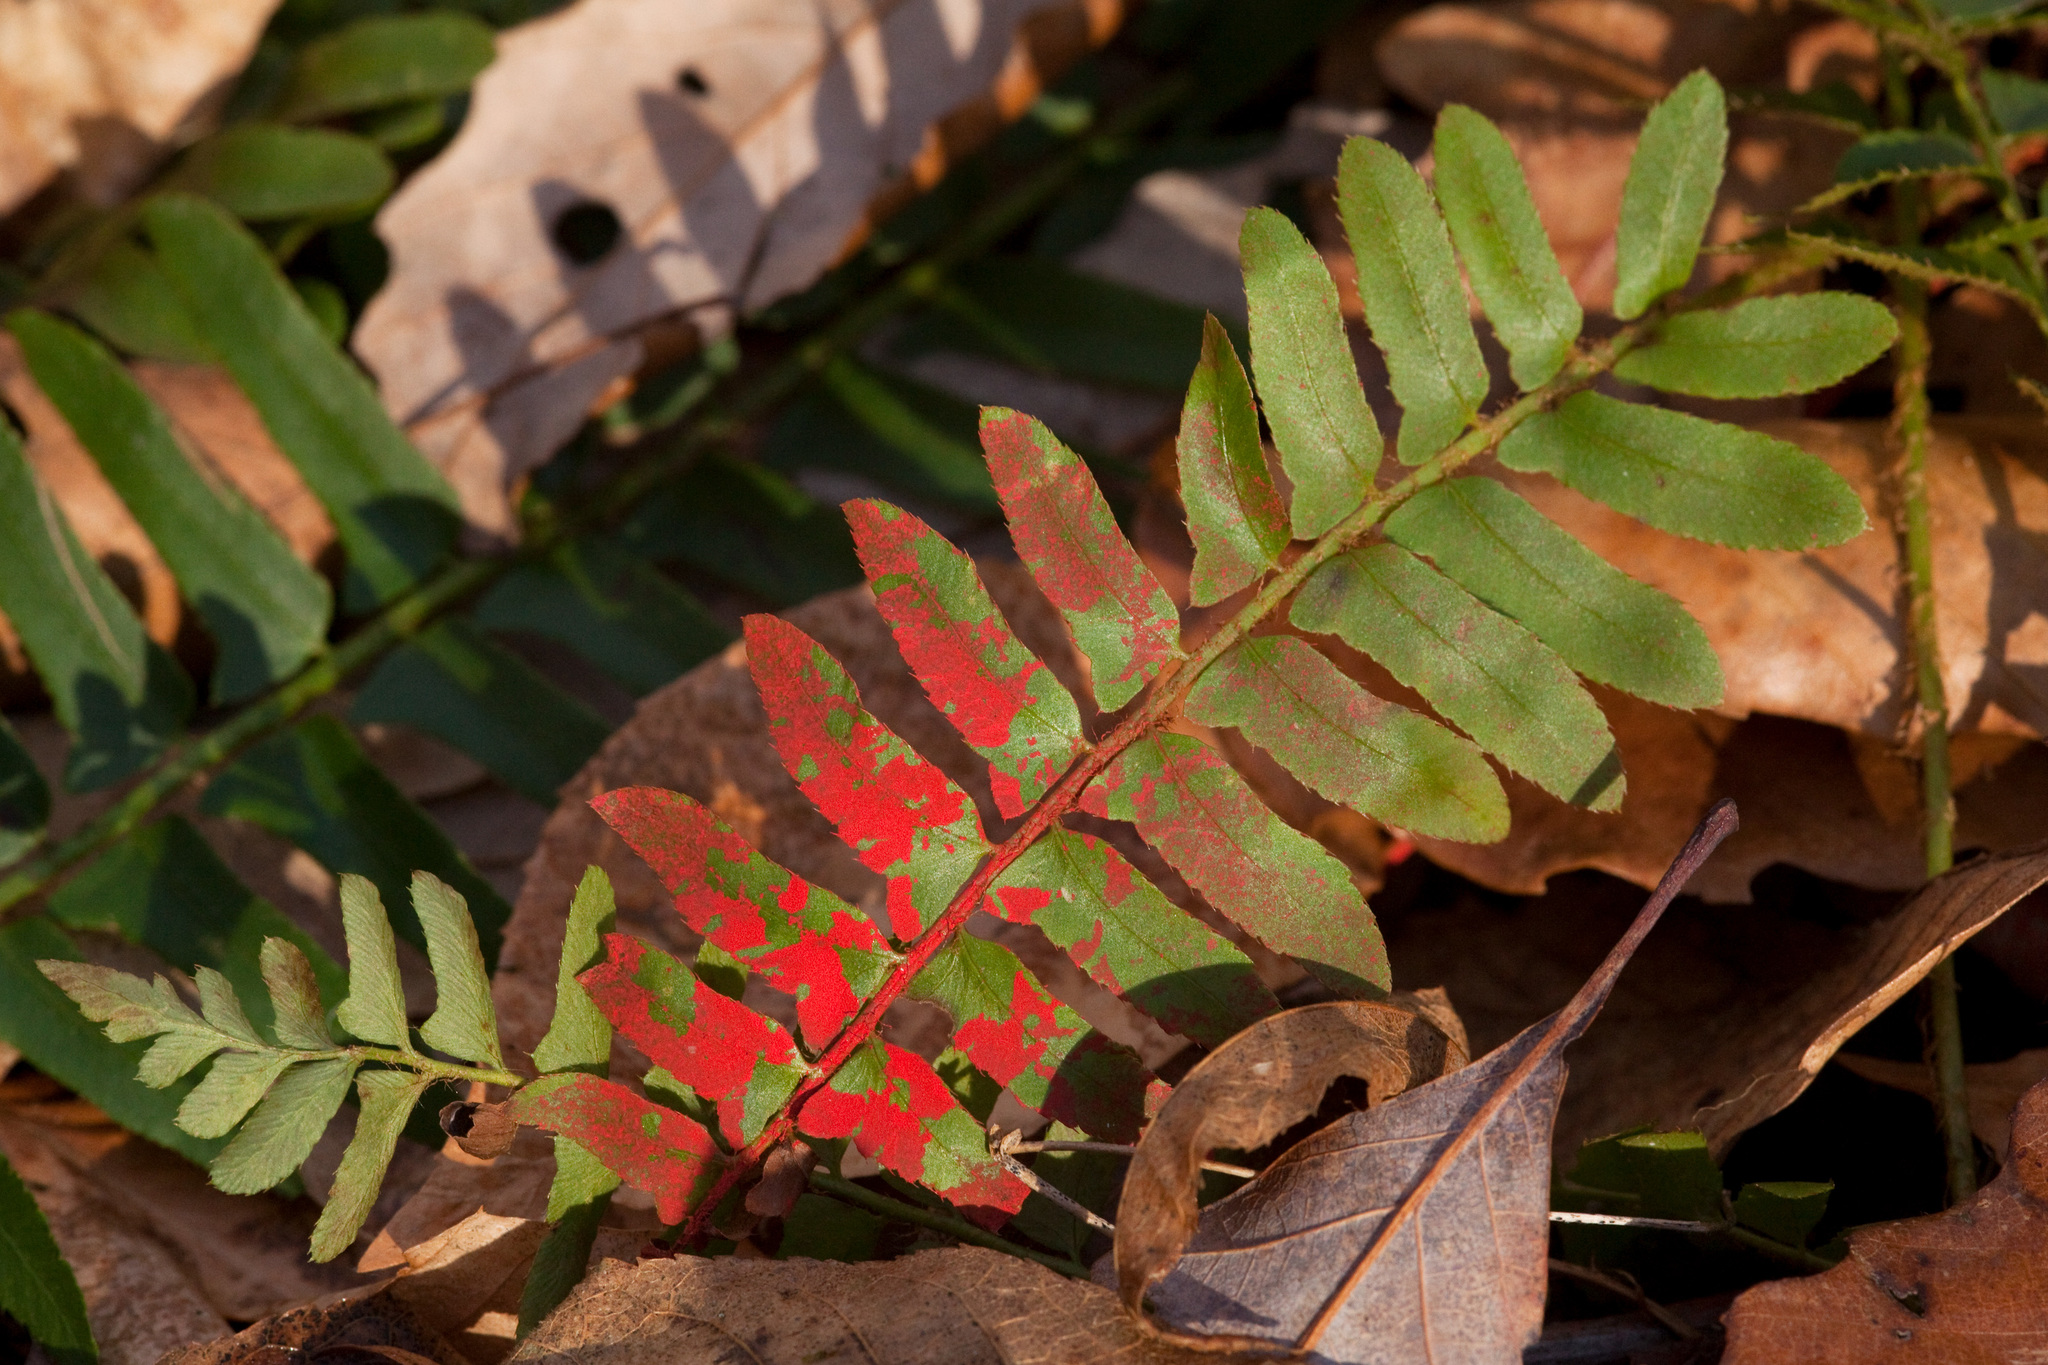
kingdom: Plantae
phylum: Tracheophyta
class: Polypodiopsida
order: Polypodiales
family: Dryopteridaceae
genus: Polystichum
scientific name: Polystichum acrostichoides
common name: Christmas fern
